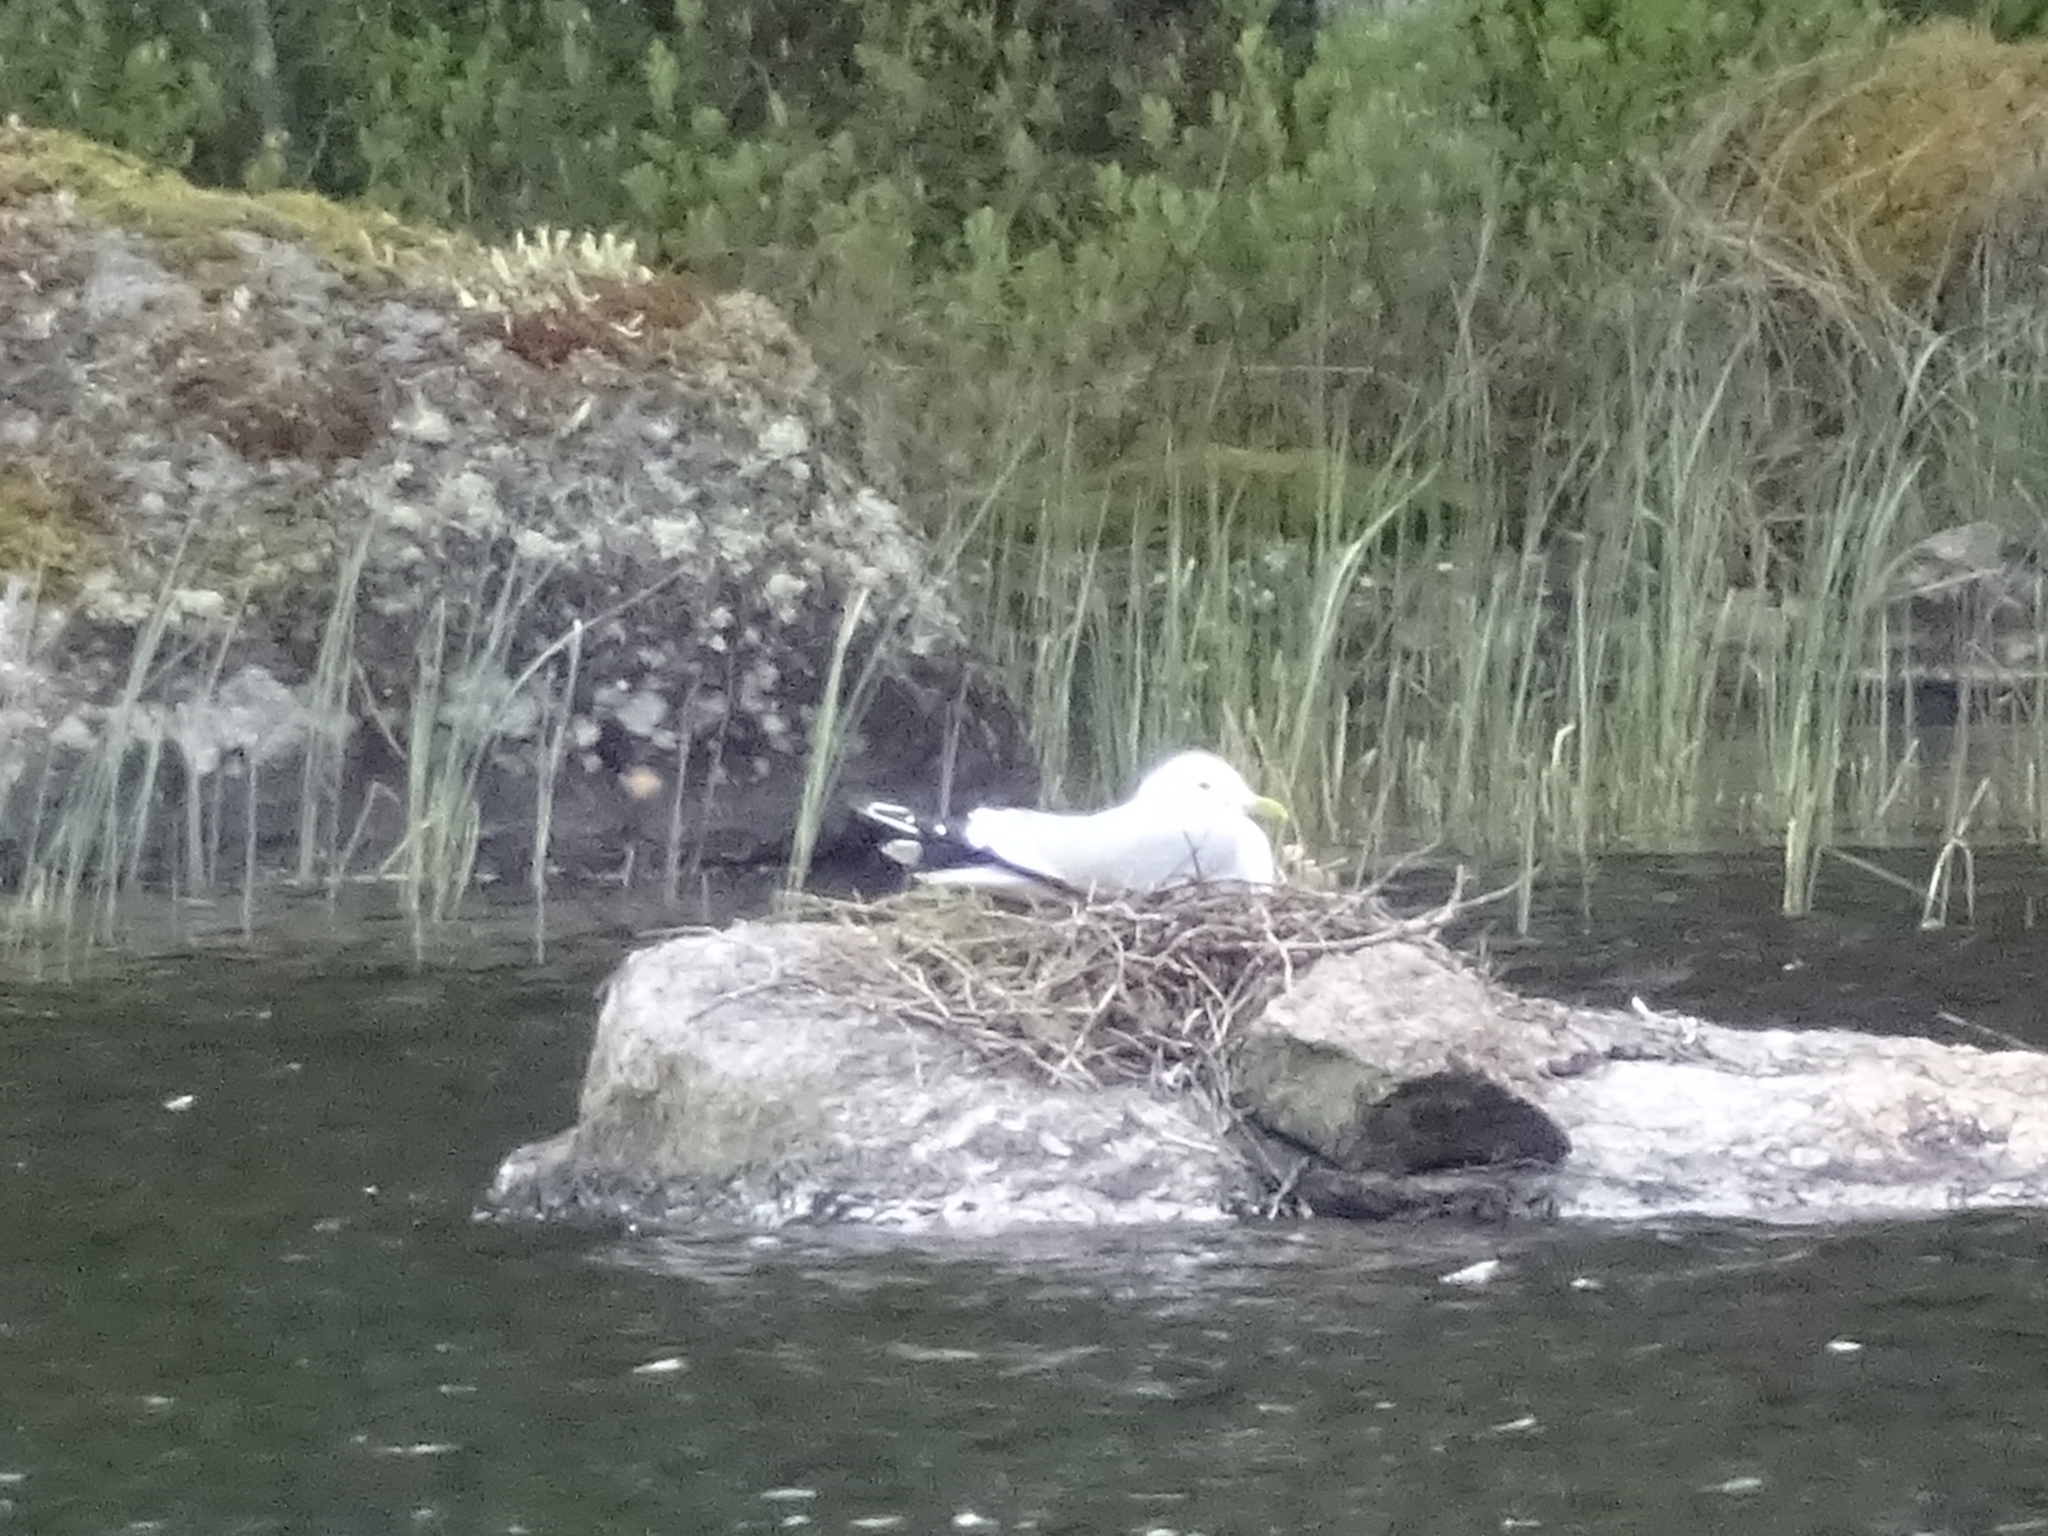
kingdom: Animalia
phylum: Chordata
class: Aves
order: Charadriiformes
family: Laridae
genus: Larus
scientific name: Larus canus
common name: Mew gull
